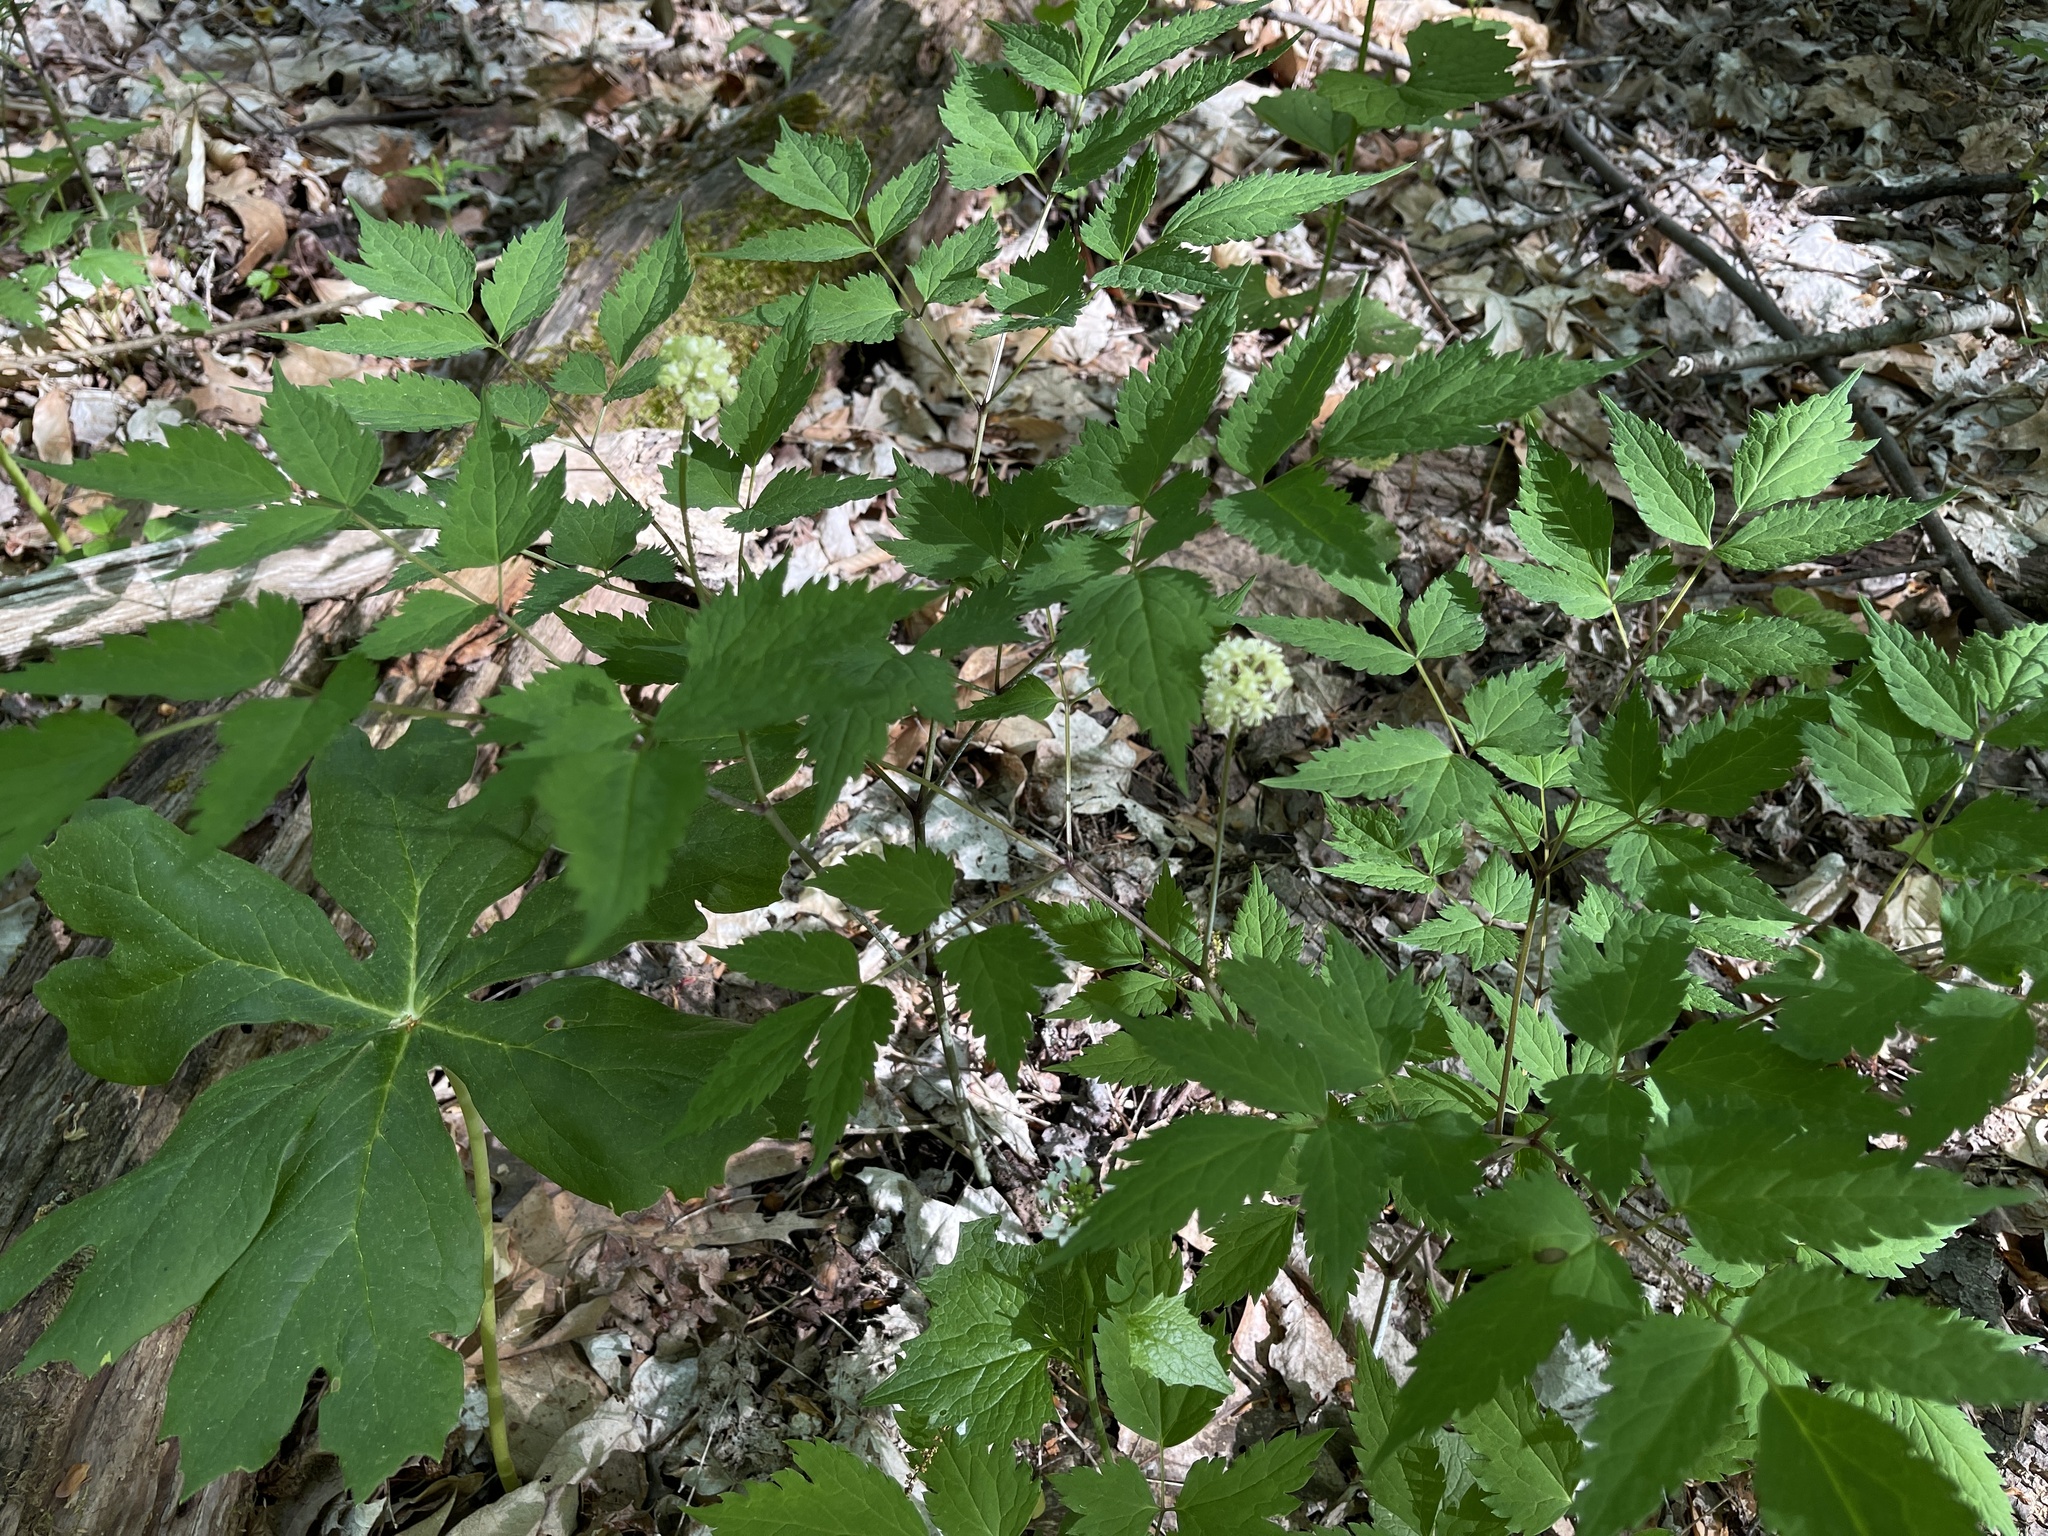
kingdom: Plantae
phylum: Tracheophyta
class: Magnoliopsida
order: Ranunculales
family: Ranunculaceae
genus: Actaea
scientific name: Actaea pachypoda
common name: Doll's-eyes
